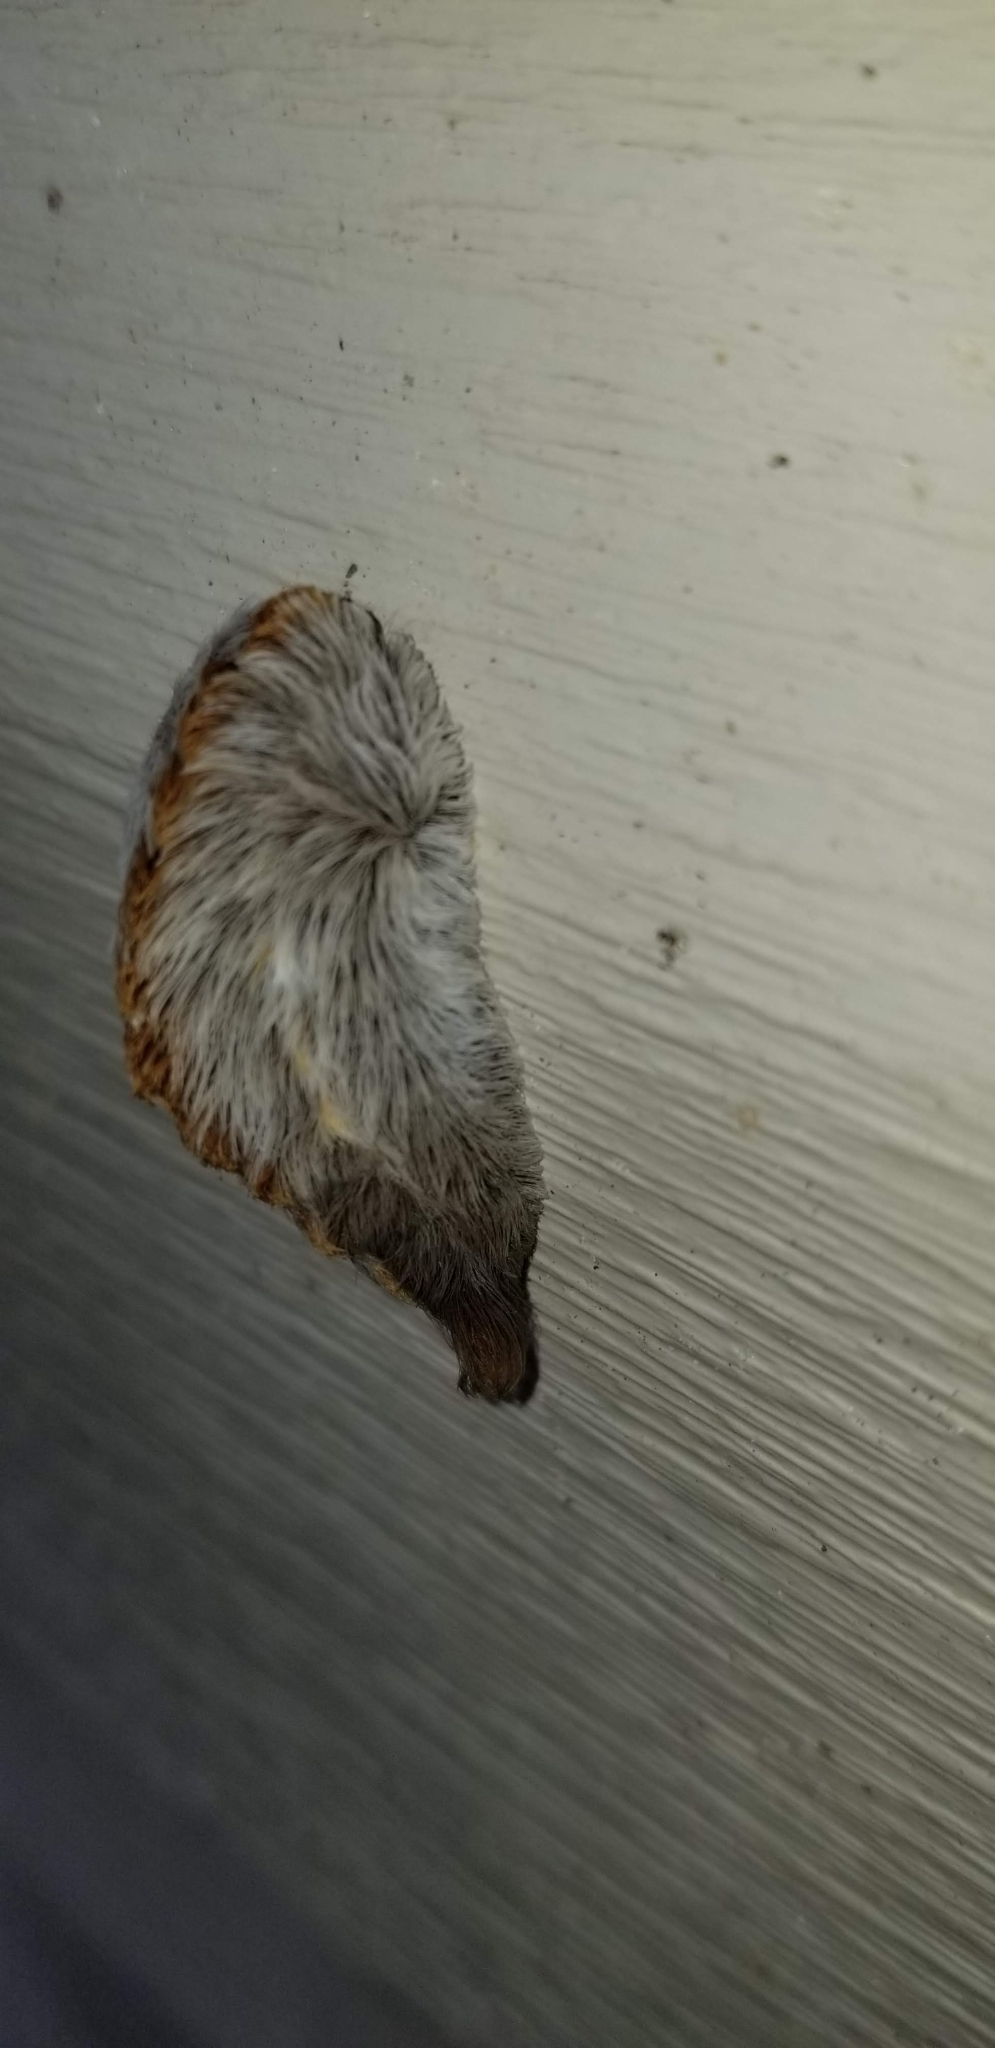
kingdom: Animalia
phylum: Arthropoda
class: Insecta
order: Lepidoptera
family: Megalopygidae
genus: Megalopyge
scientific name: Megalopyge opercularis
